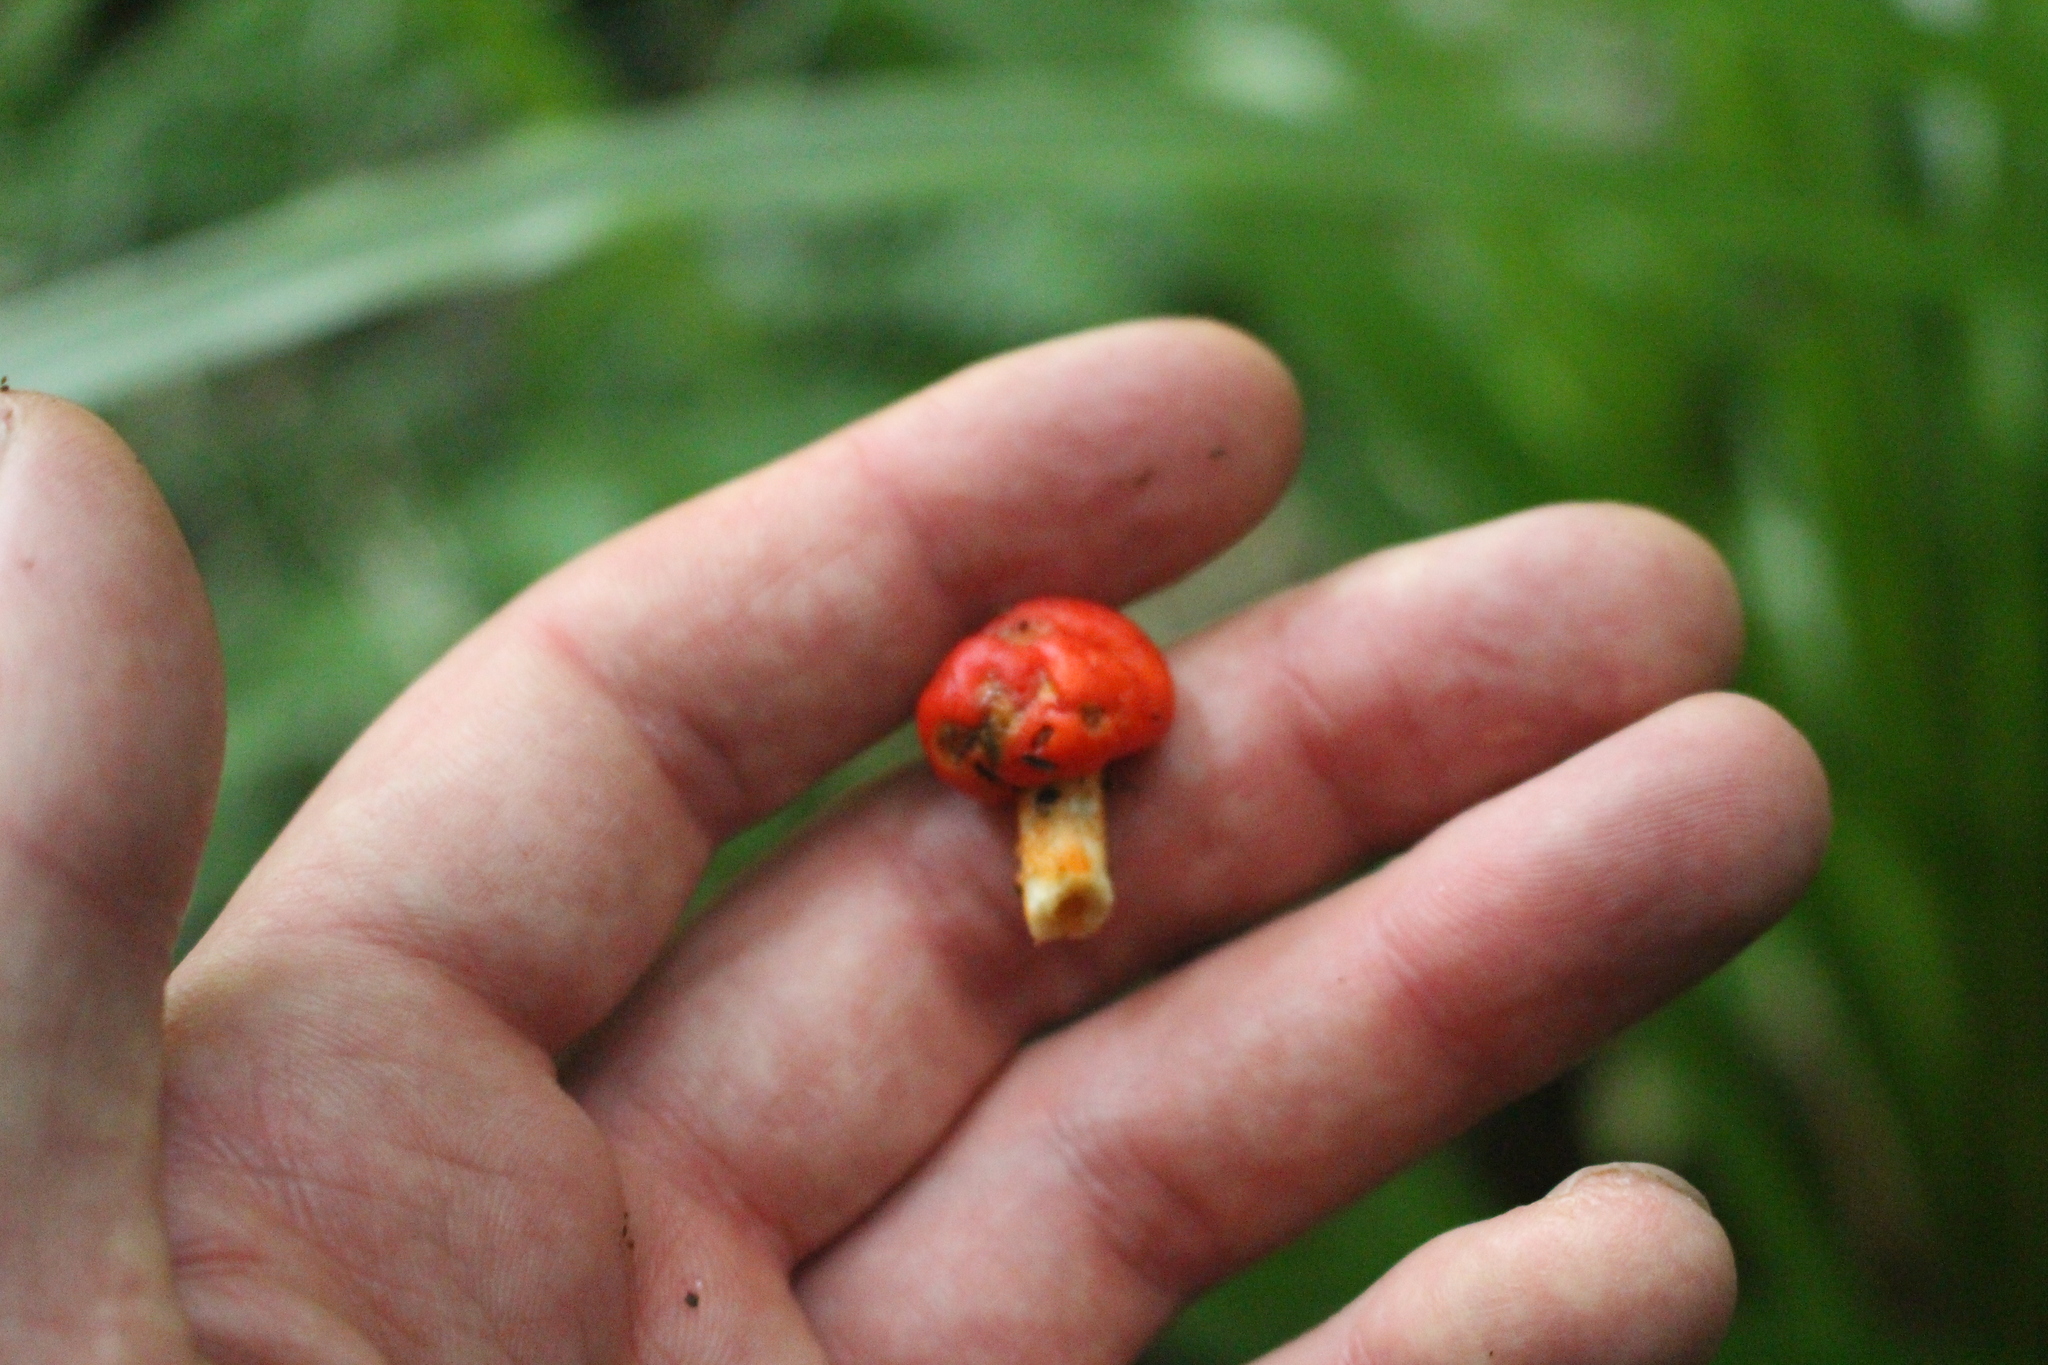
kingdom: Fungi
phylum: Basidiomycota
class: Agaricomycetes
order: Agaricales
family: Strophariaceae
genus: Leratiomyces
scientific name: Leratiomyces erythrocephalus
